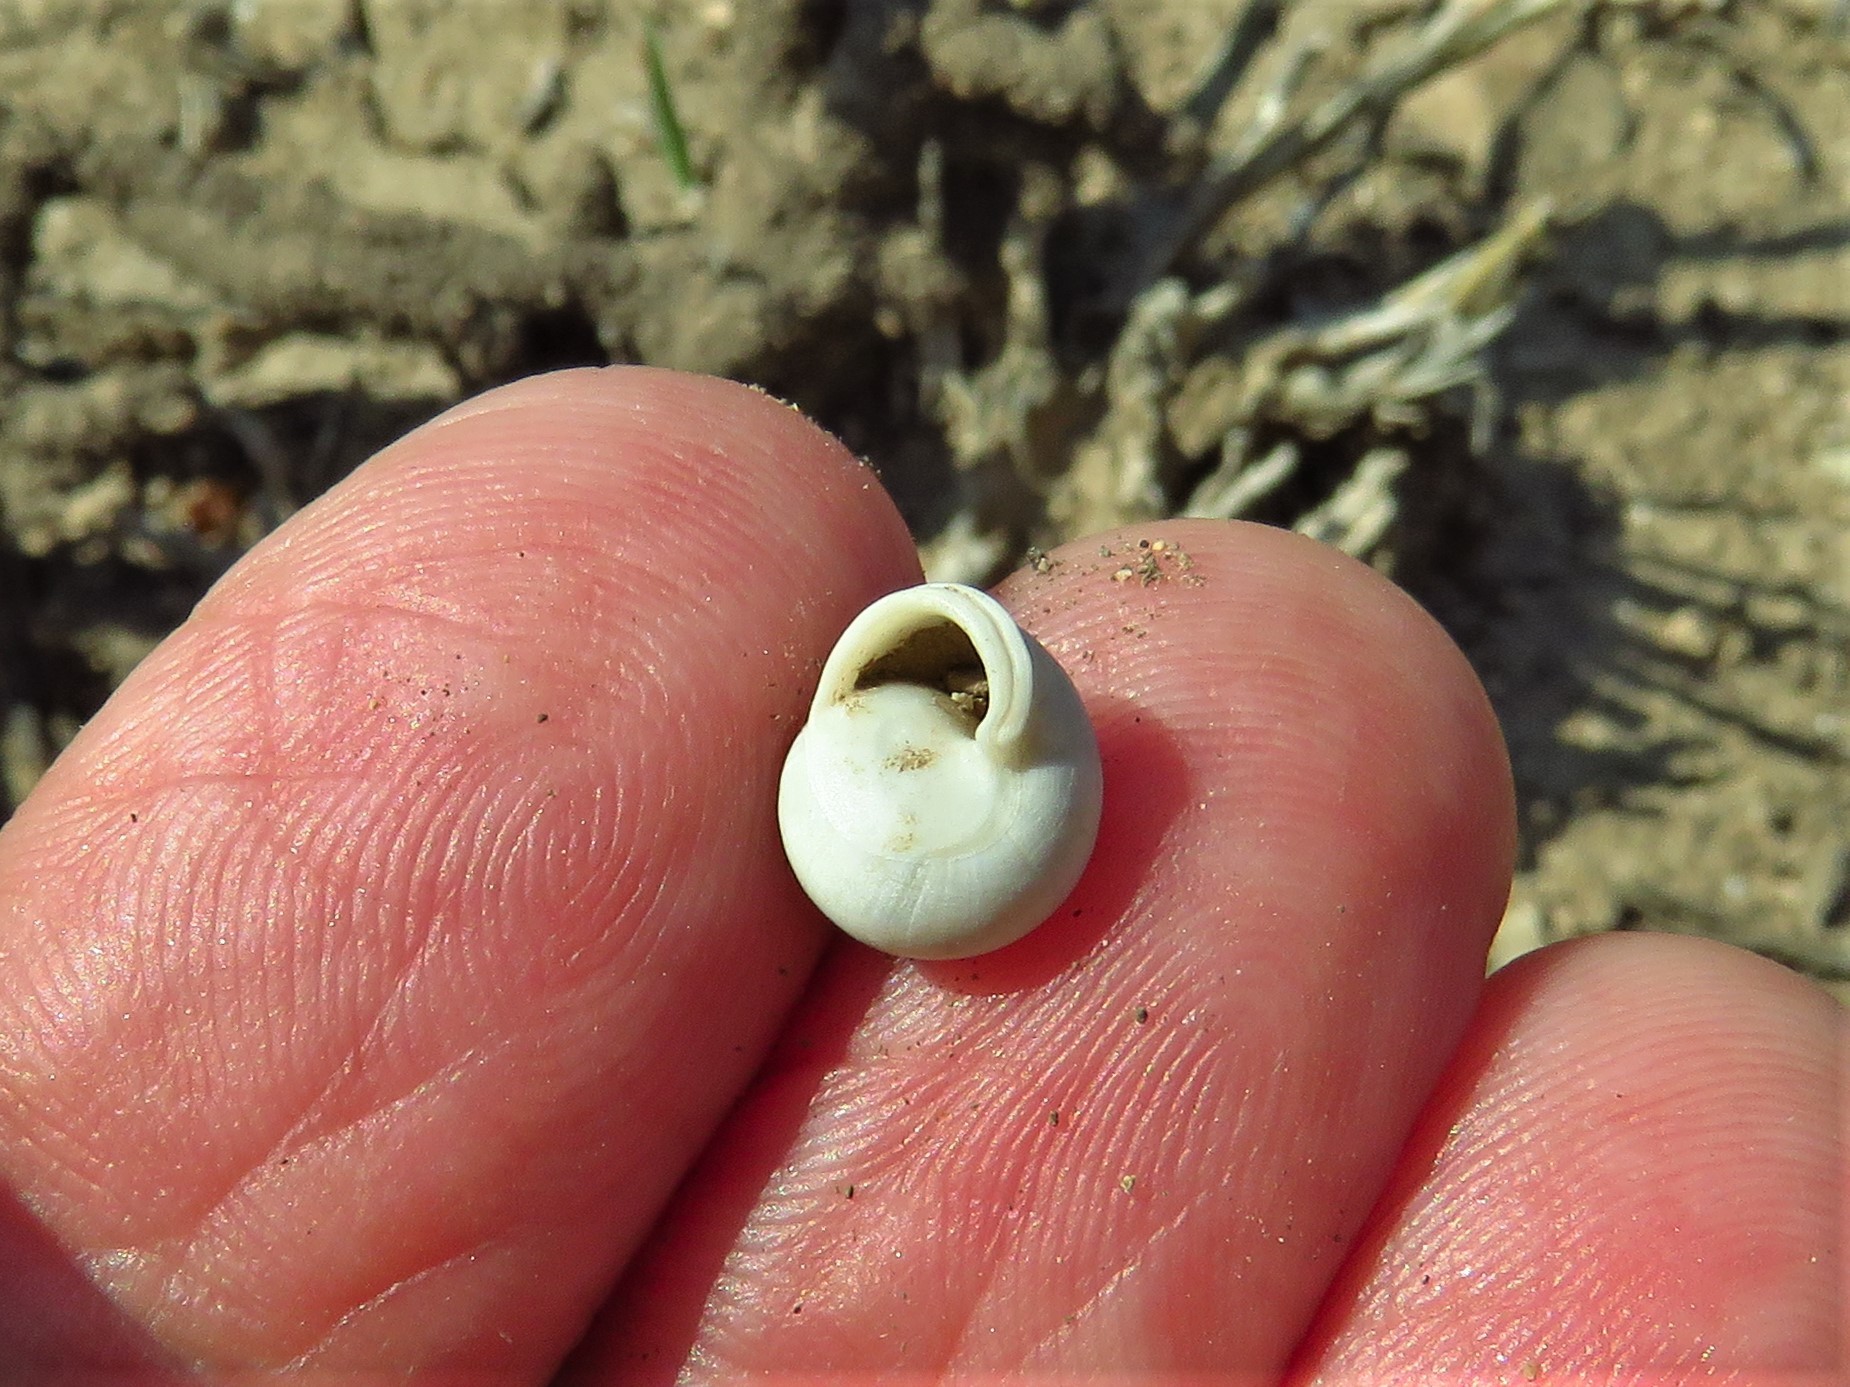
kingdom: Animalia
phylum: Mollusca
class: Gastropoda
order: Cycloneritida
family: Helicinidae
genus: Helicina
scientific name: Helicina orbiculata
